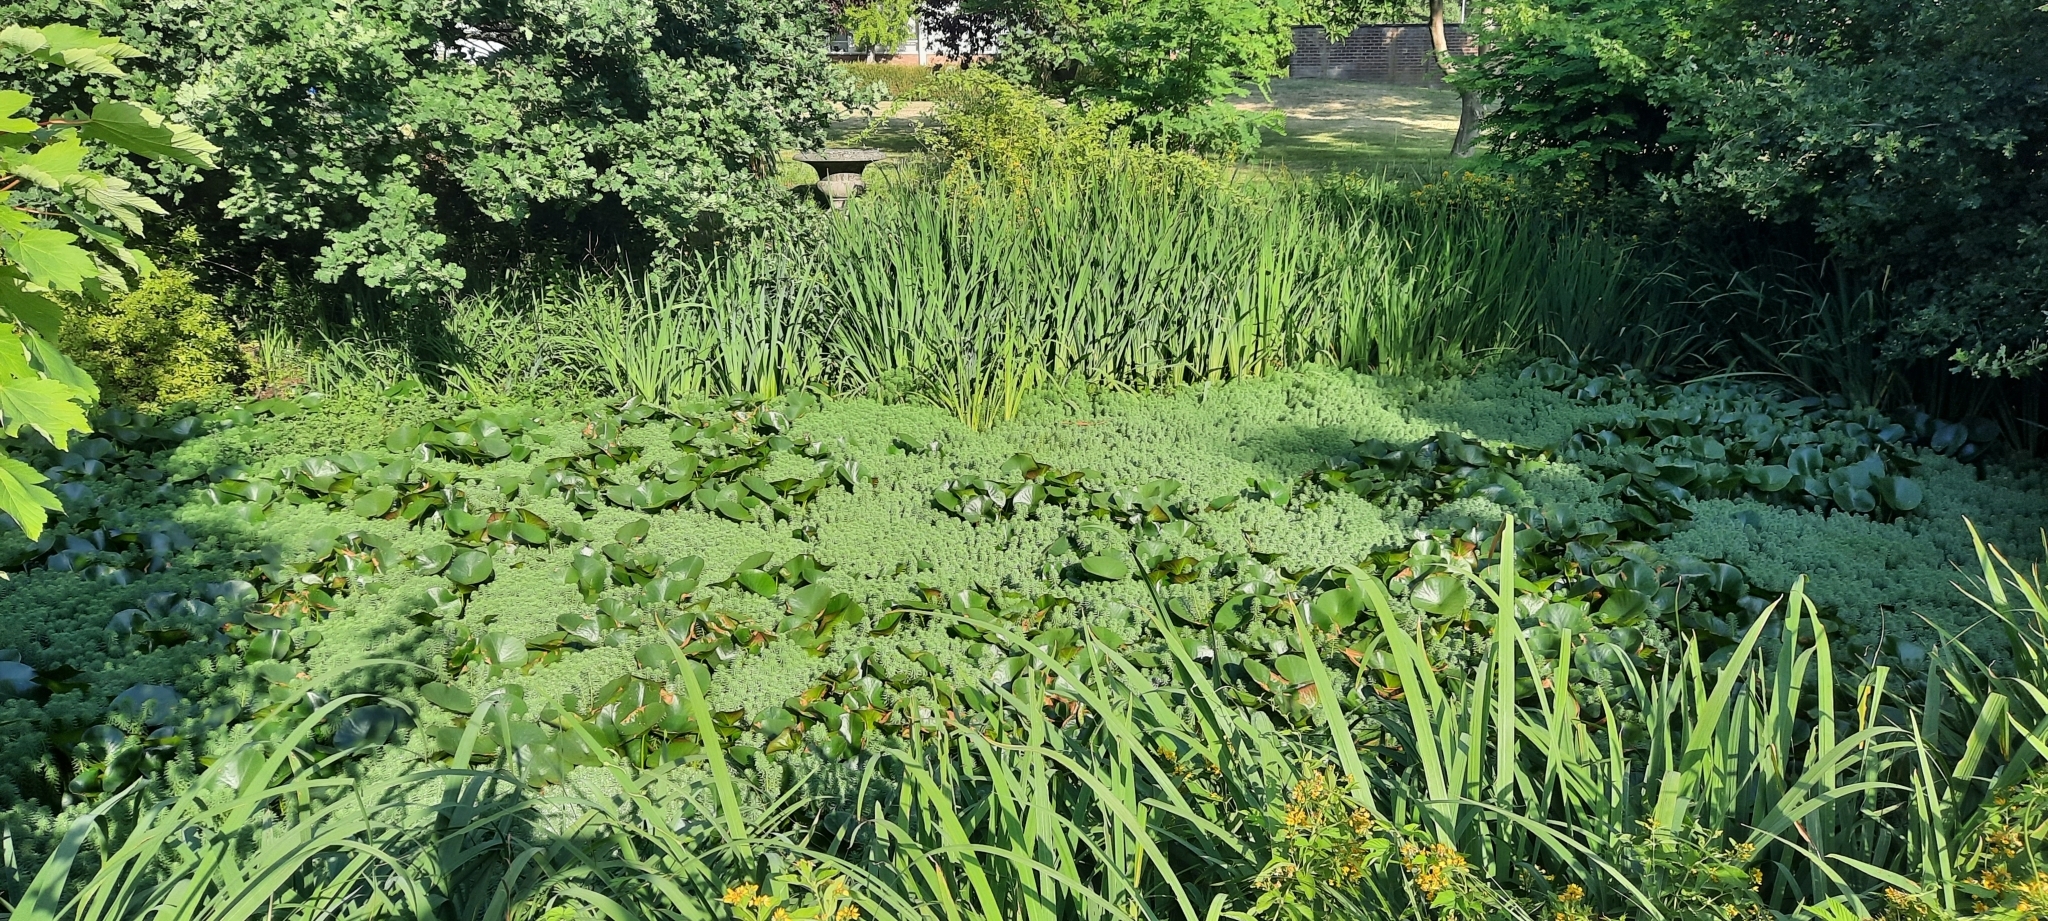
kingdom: Plantae
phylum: Tracheophyta
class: Magnoliopsida
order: Saxifragales
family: Haloragaceae
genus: Myriophyllum
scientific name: Myriophyllum aquaticum
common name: Parrot's feather
